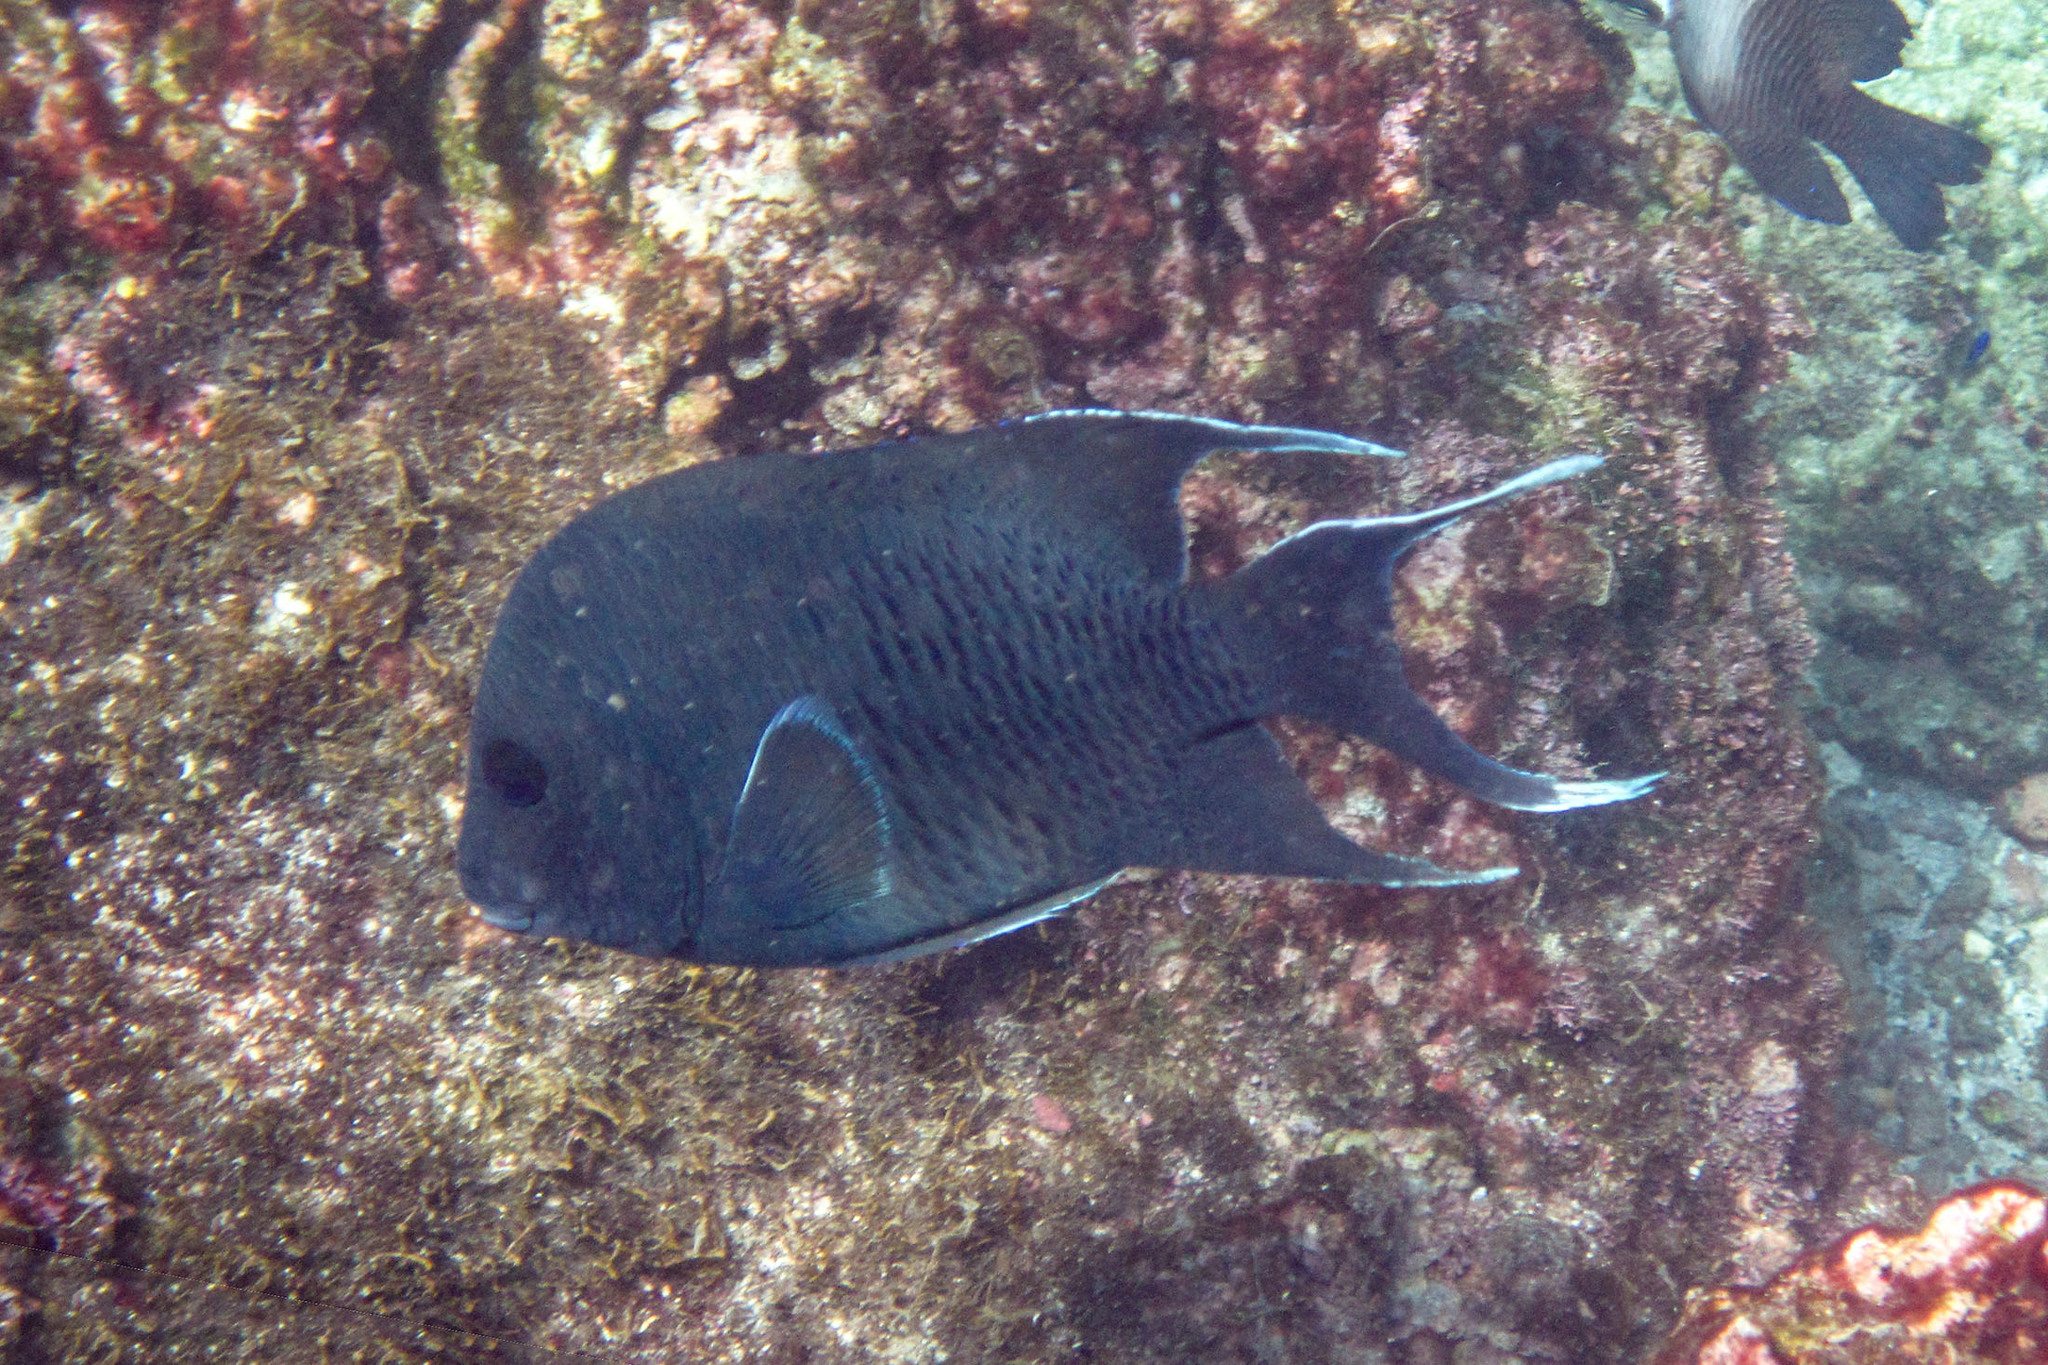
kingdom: Animalia
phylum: Chordata
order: Perciformes
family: Pomacentridae
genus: Microspathodon
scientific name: Microspathodon dorsalis
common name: Giant damselfish
